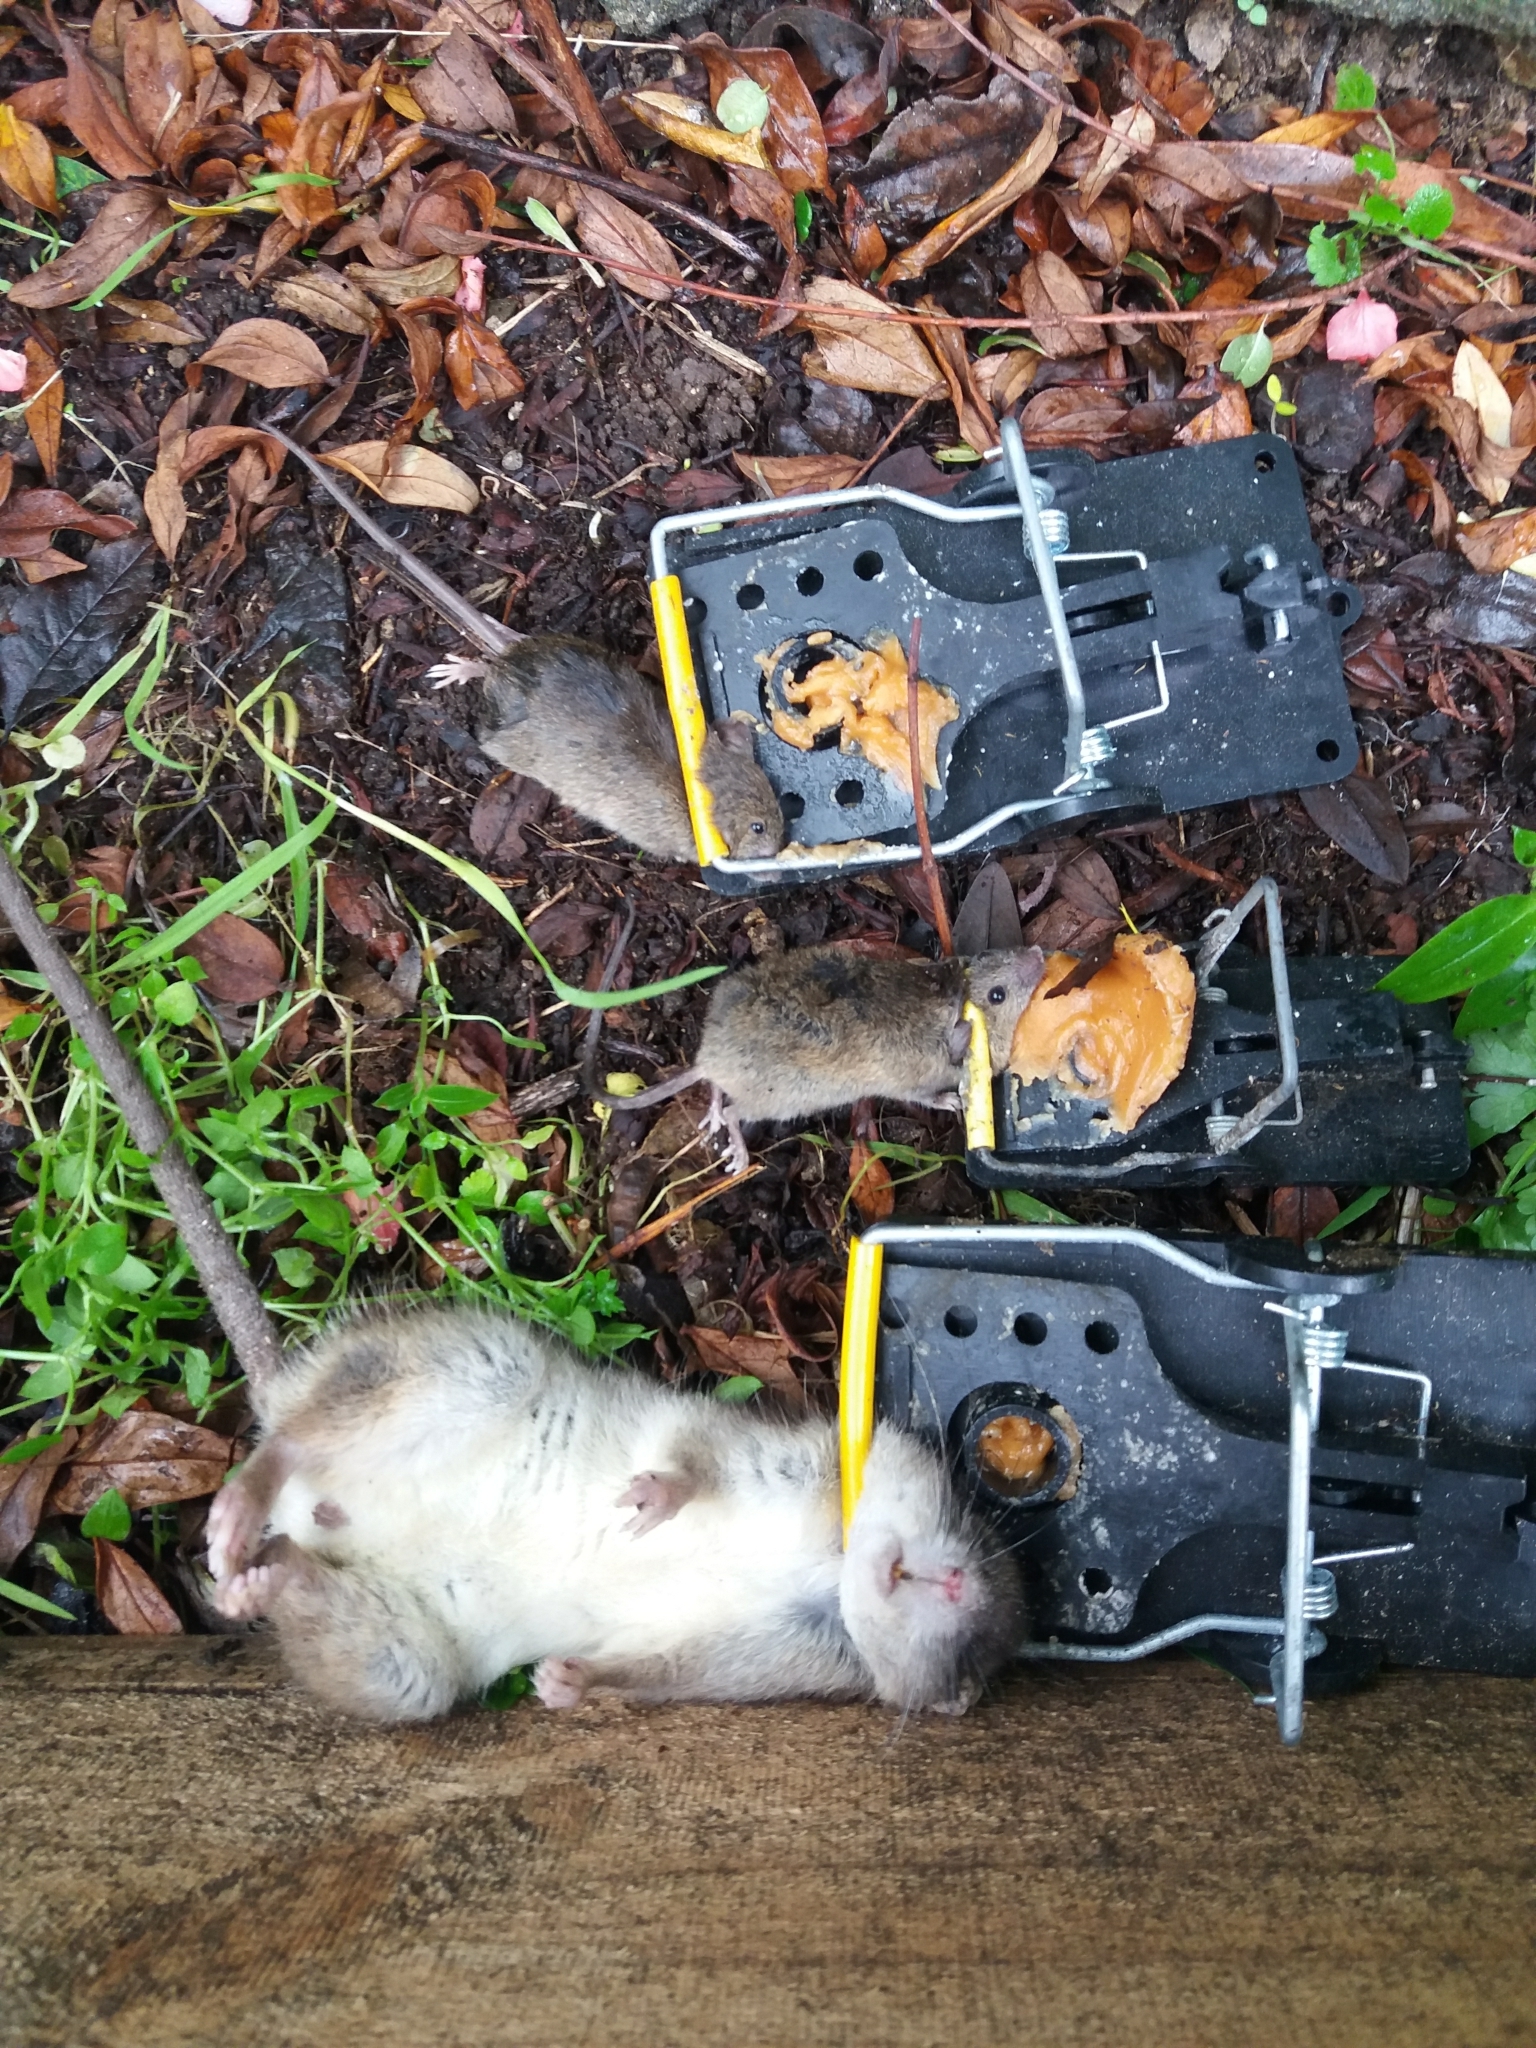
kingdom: Animalia
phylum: Chordata
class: Mammalia
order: Rodentia
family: Muridae
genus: Rattus
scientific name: Rattus norvegicus
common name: Brown rat
